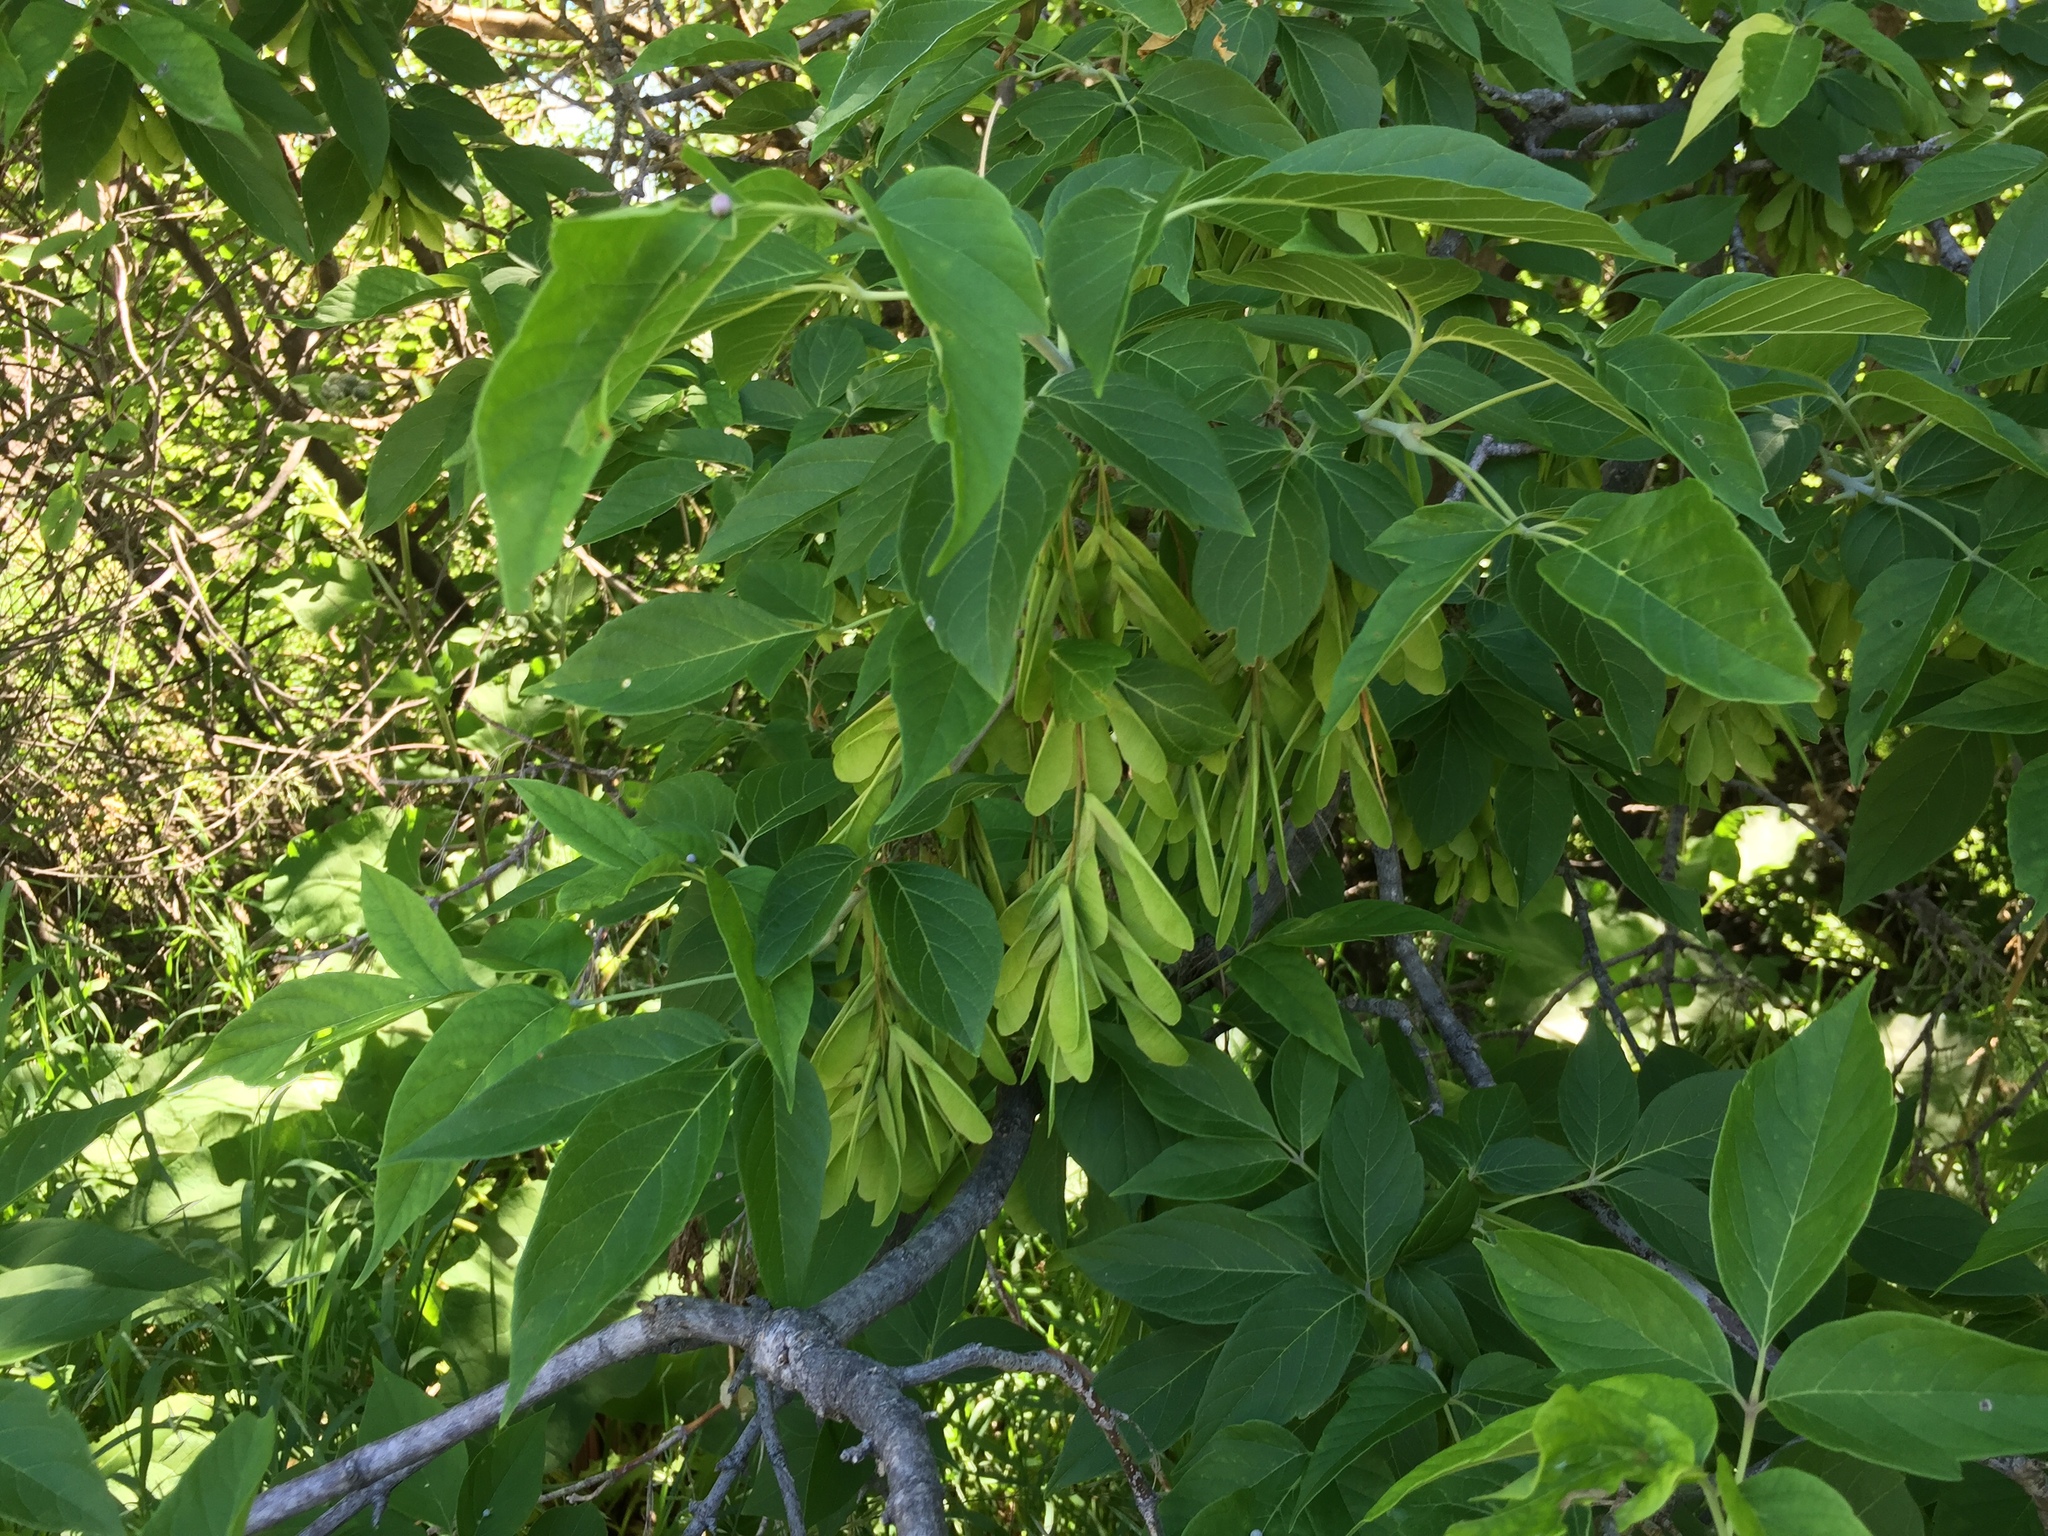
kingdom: Plantae
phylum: Tracheophyta
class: Magnoliopsida
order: Sapindales
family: Sapindaceae
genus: Acer
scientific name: Acer negundo
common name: Ashleaf maple
